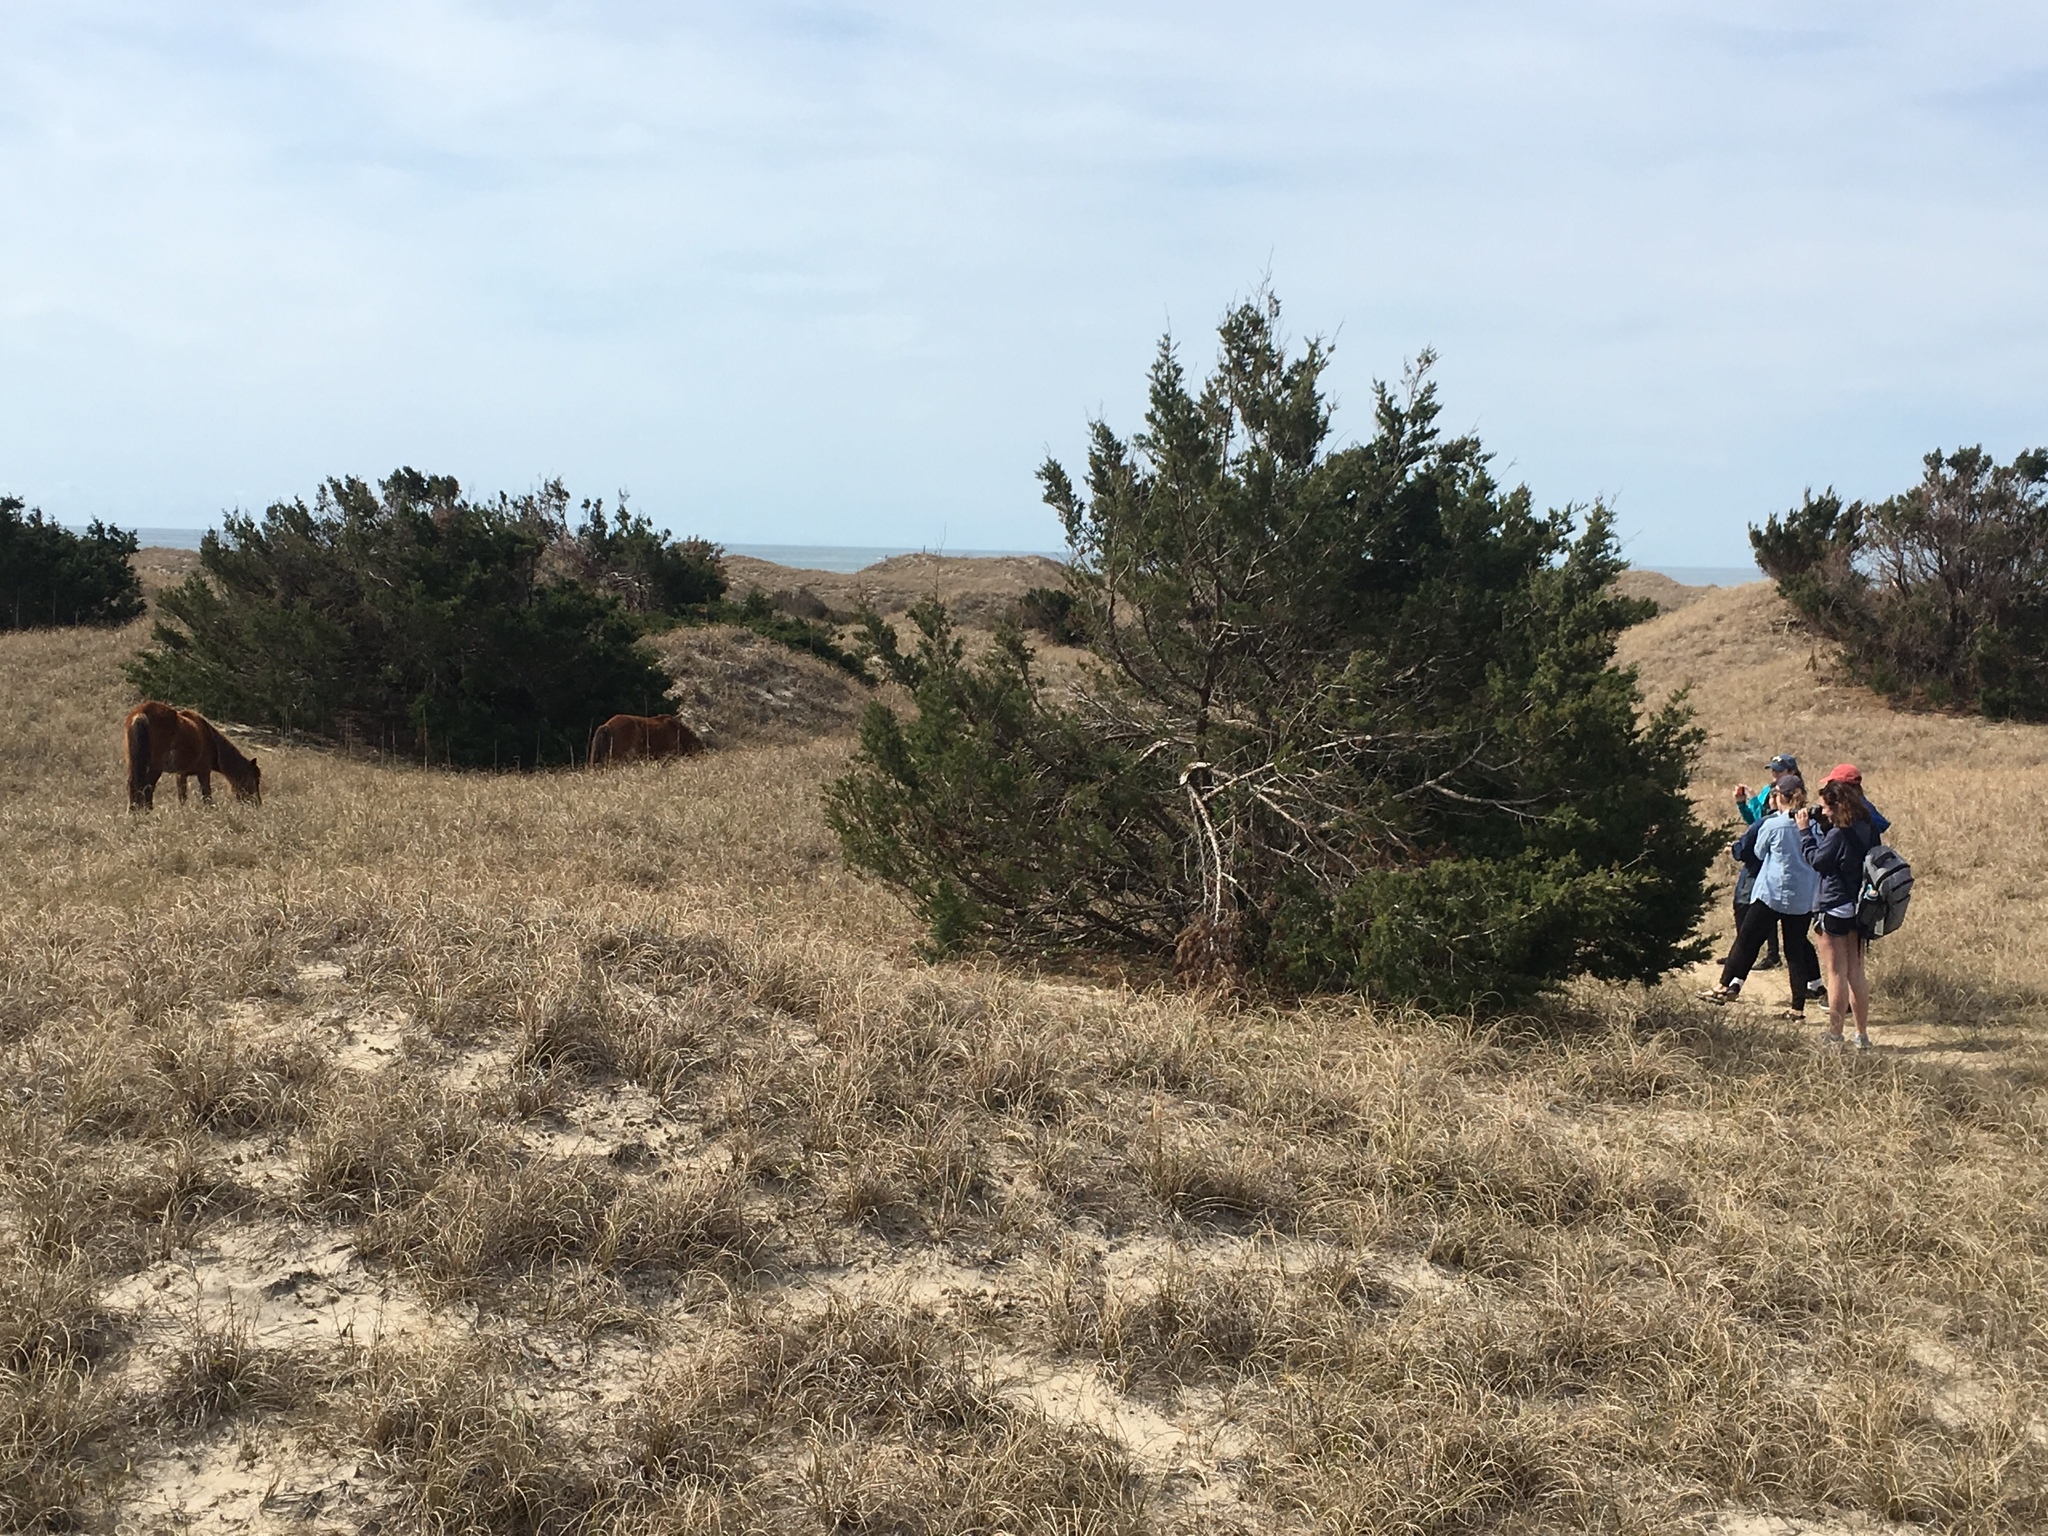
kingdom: Plantae
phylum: Tracheophyta
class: Pinopsida
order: Pinales
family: Cupressaceae
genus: Juniperus
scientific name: Juniperus virginiana
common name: Red juniper
